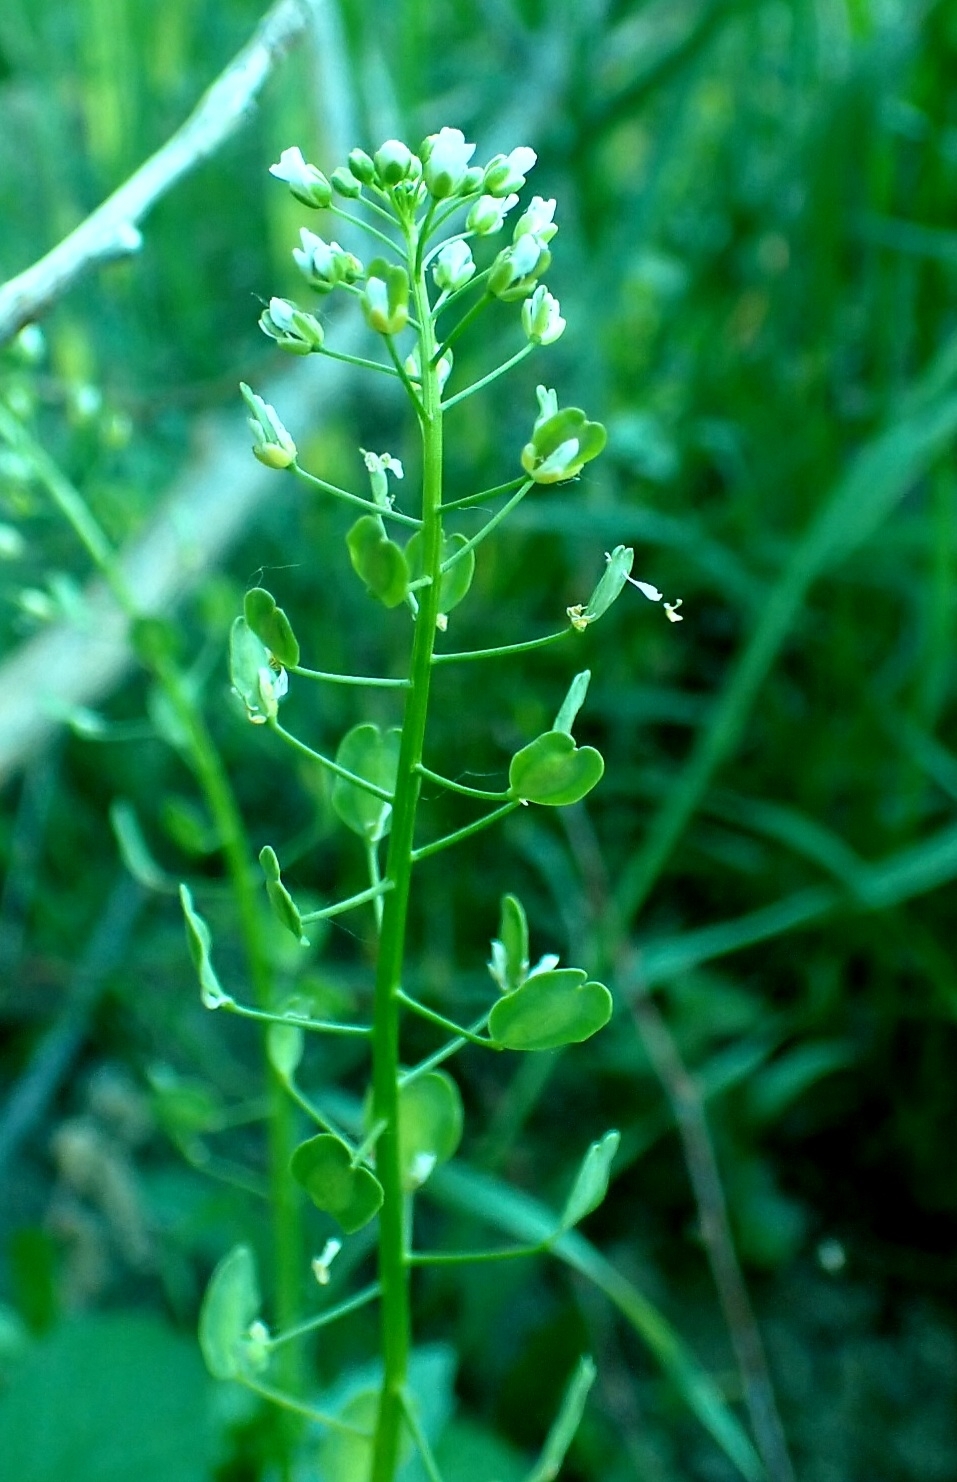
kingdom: Plantae
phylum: Tracheophyta
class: Magnoliopsida
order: Brassicales
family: Brassicaceae
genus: Thlaspi
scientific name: Thlaspi arvense
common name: Field pennycress
